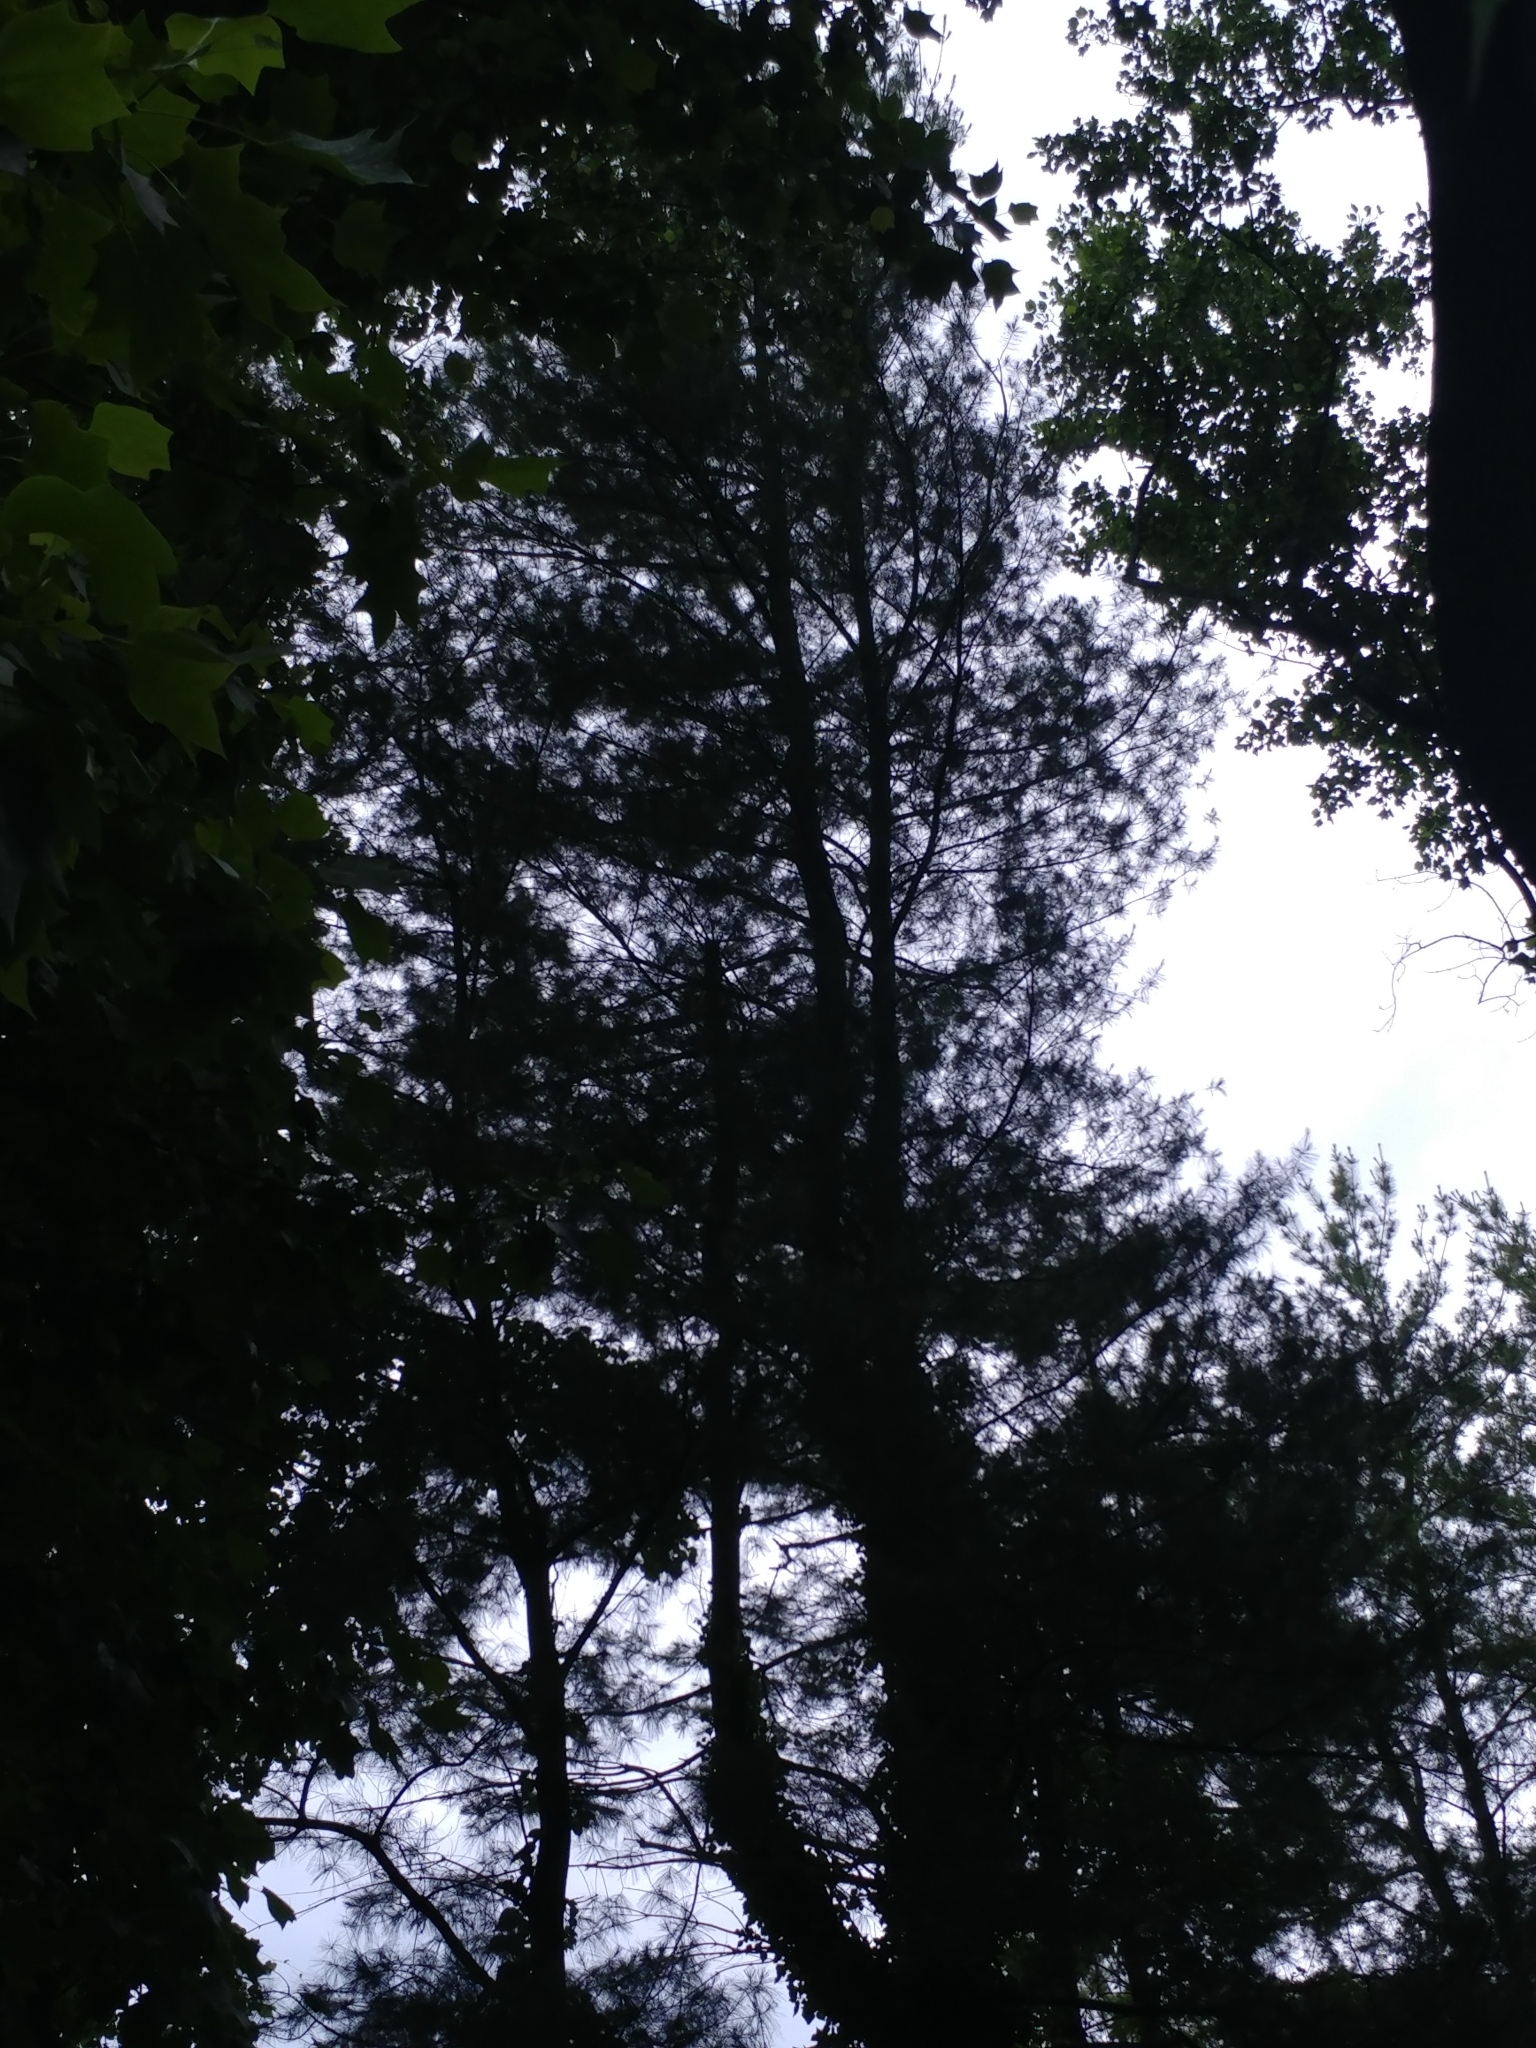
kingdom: Plantae
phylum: Tracheophyta
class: Pinopsida
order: Pinales
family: Pinaceae
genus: Pinus
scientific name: Pinus strobus
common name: Weymouth pine
